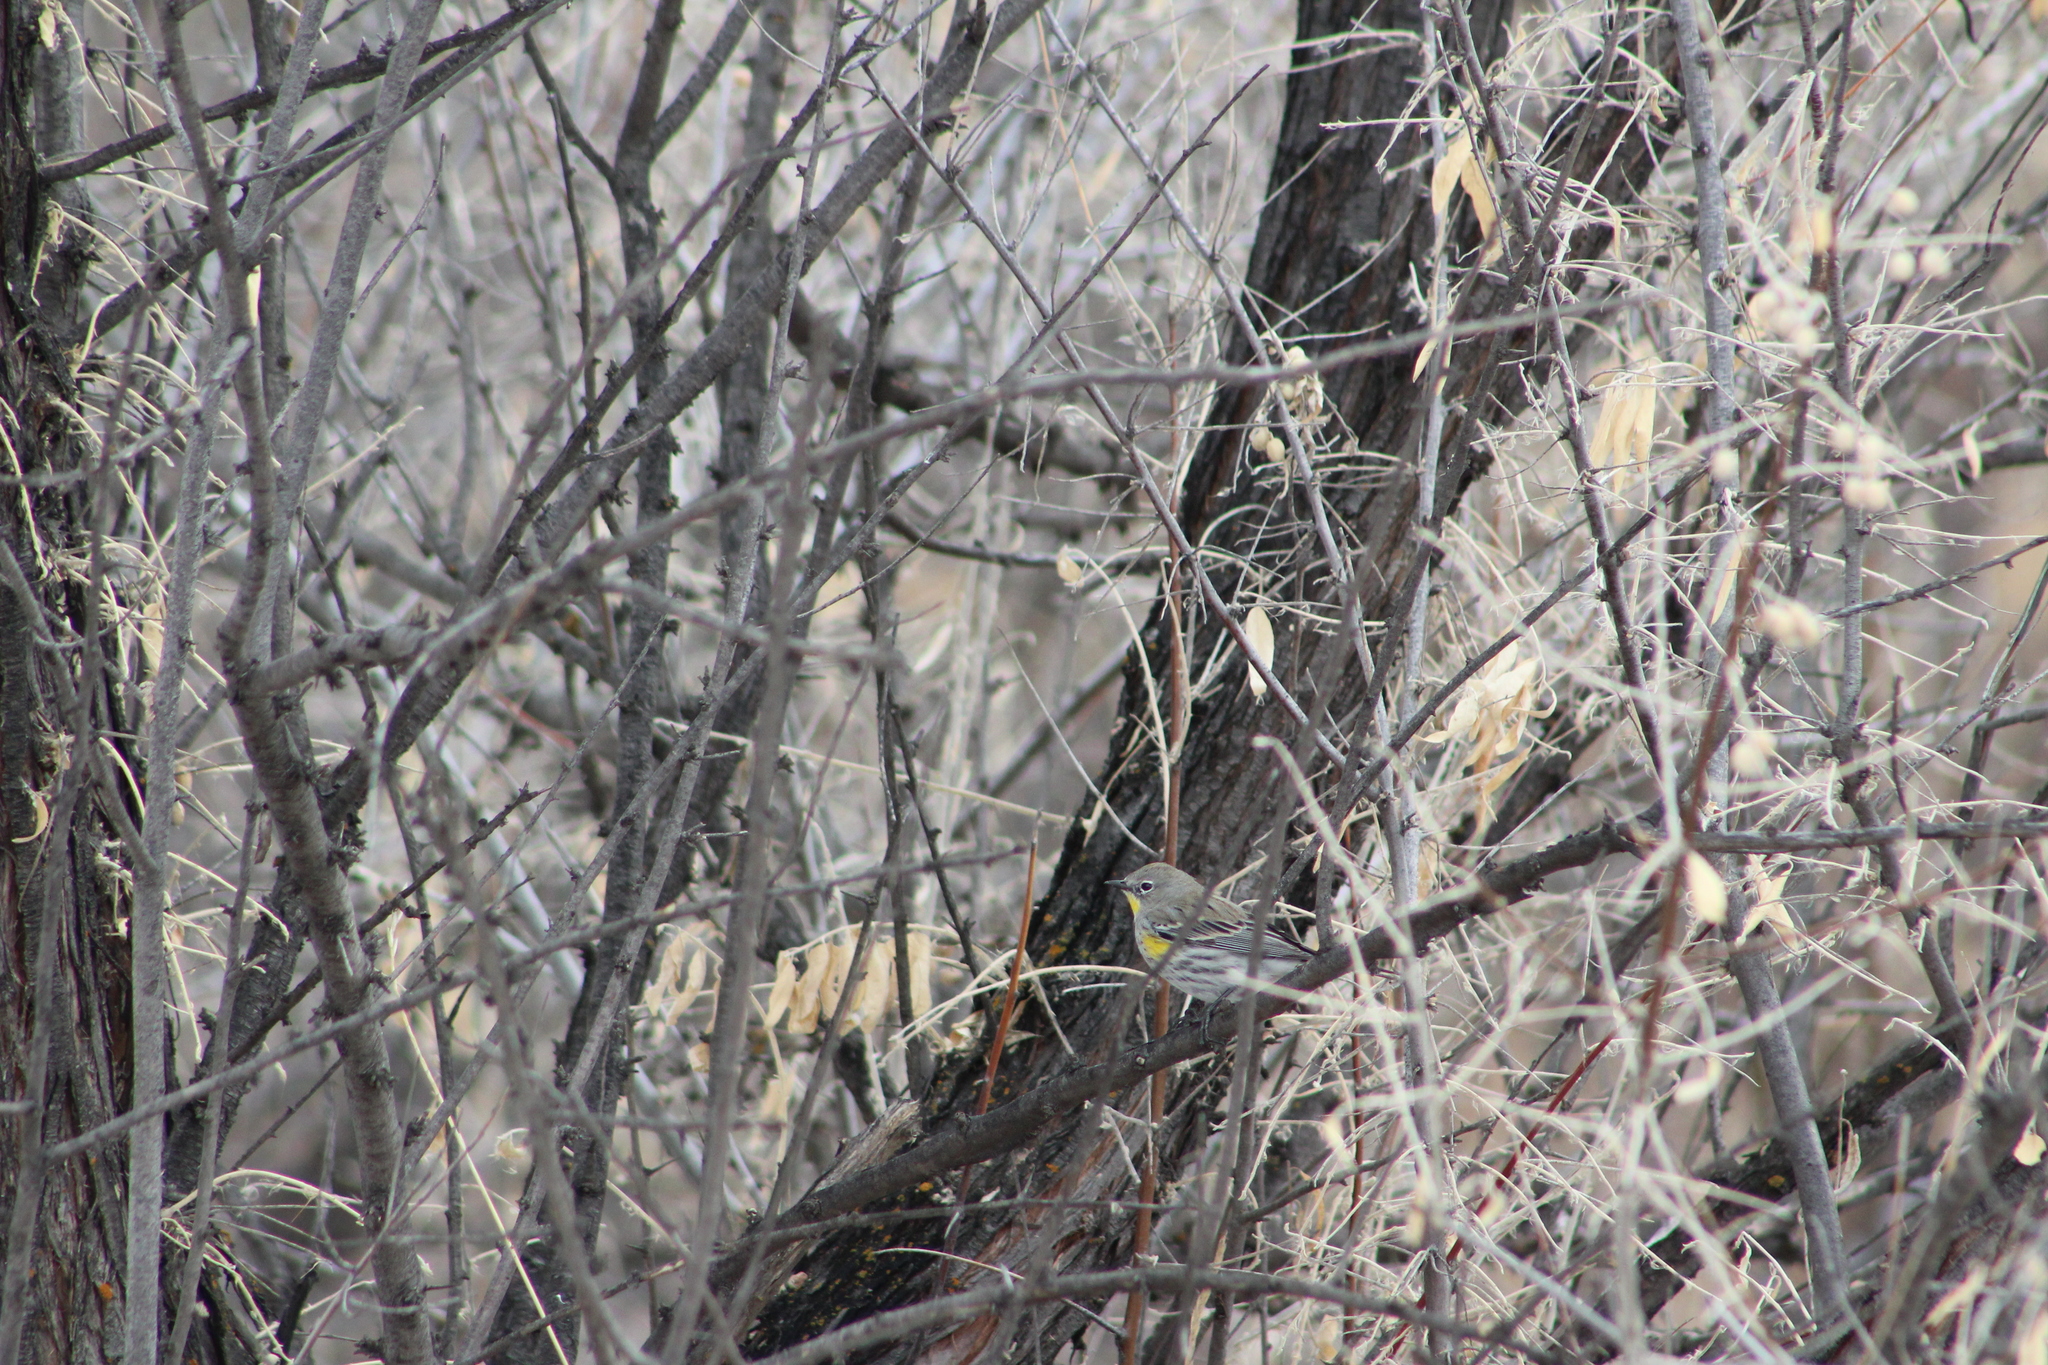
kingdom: Animalia
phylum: Chordata
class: Aves
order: Passeriformes
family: Parulidae
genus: Setophaga
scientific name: Setophaga coronata
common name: Myrtle warbler
